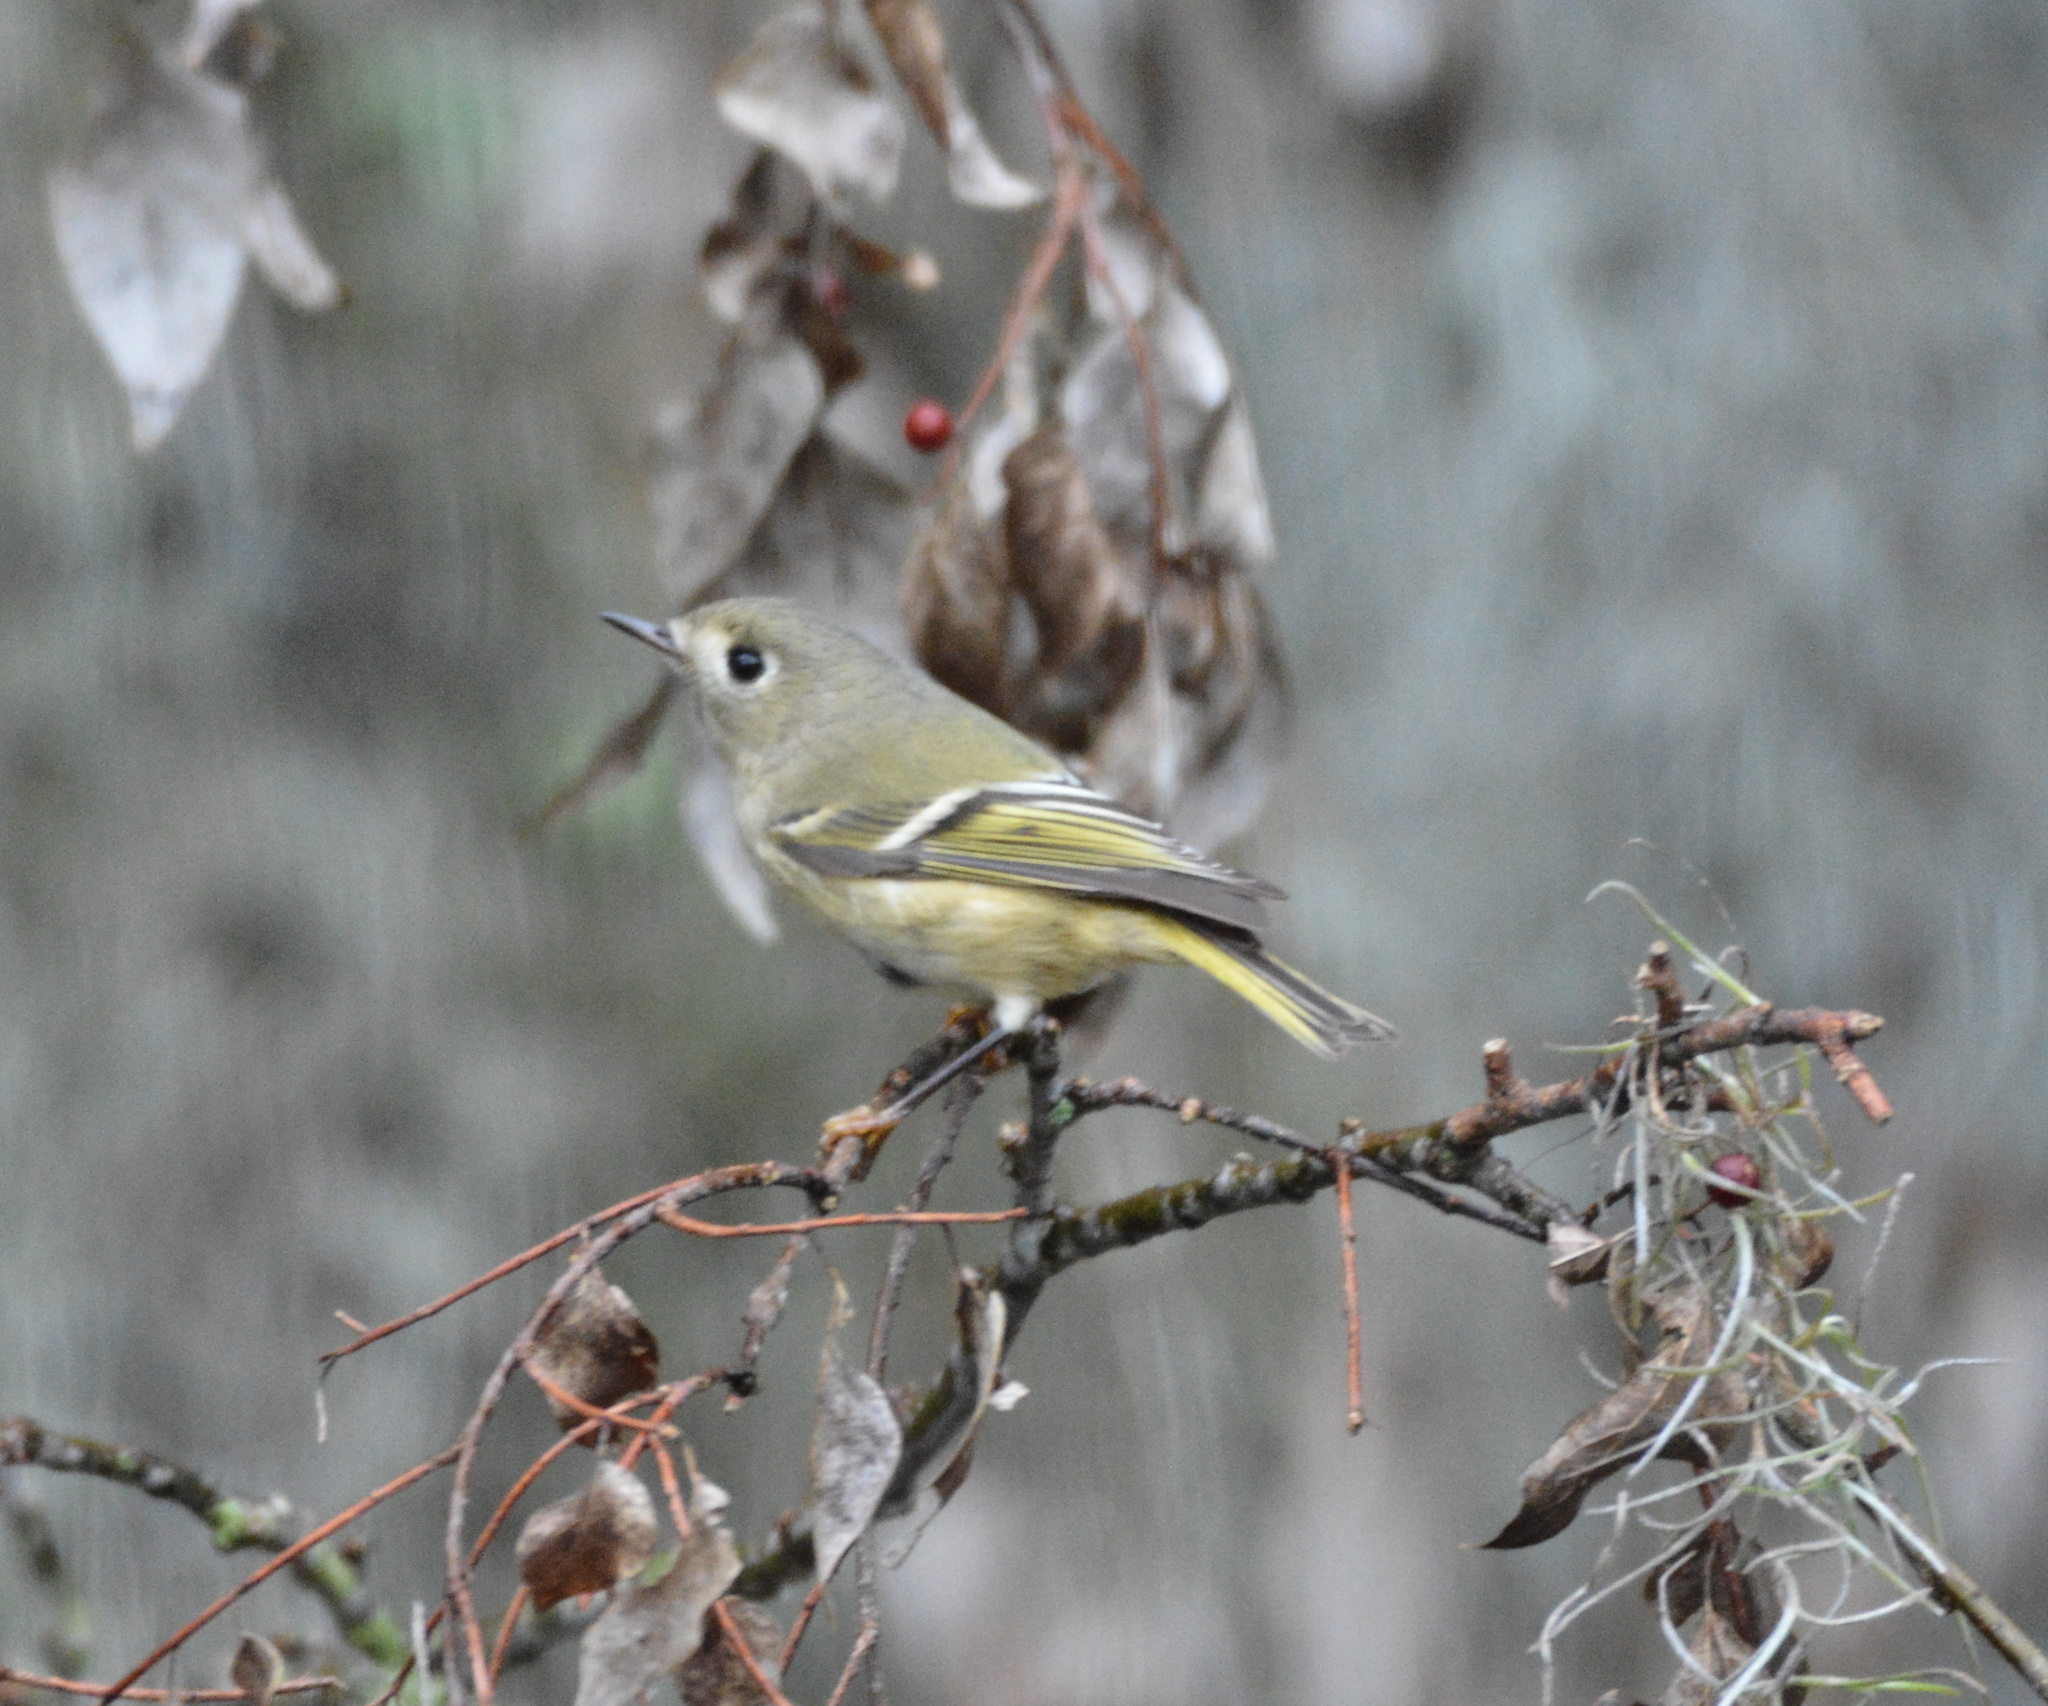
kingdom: Animalia
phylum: Chordata
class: Aves
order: Passeriformes
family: Regulidae
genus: Regulus
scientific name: Regulus calendula
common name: Ruby-crowned kinglet
